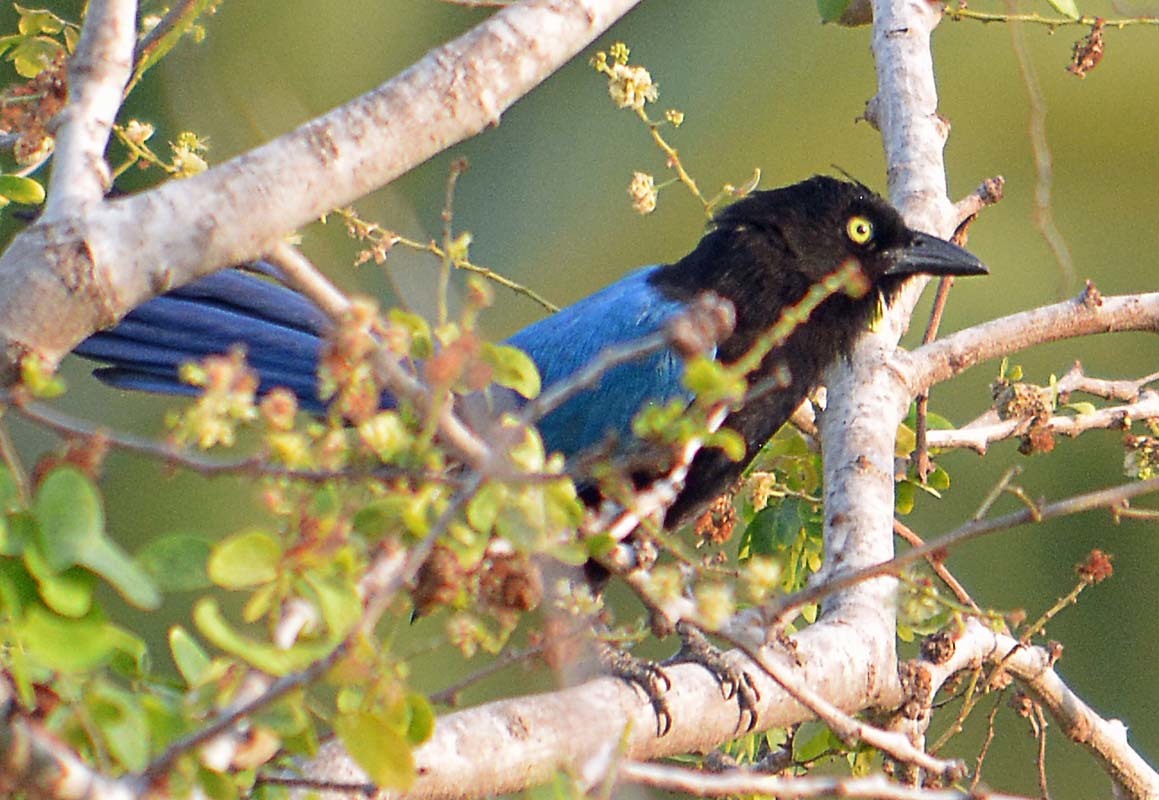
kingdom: Animalia
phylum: Chordata
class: Aves
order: Passeriformes
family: Corvidae
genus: Cyanocorax
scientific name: Cyanocorax sanblasianus
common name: San blas jay
